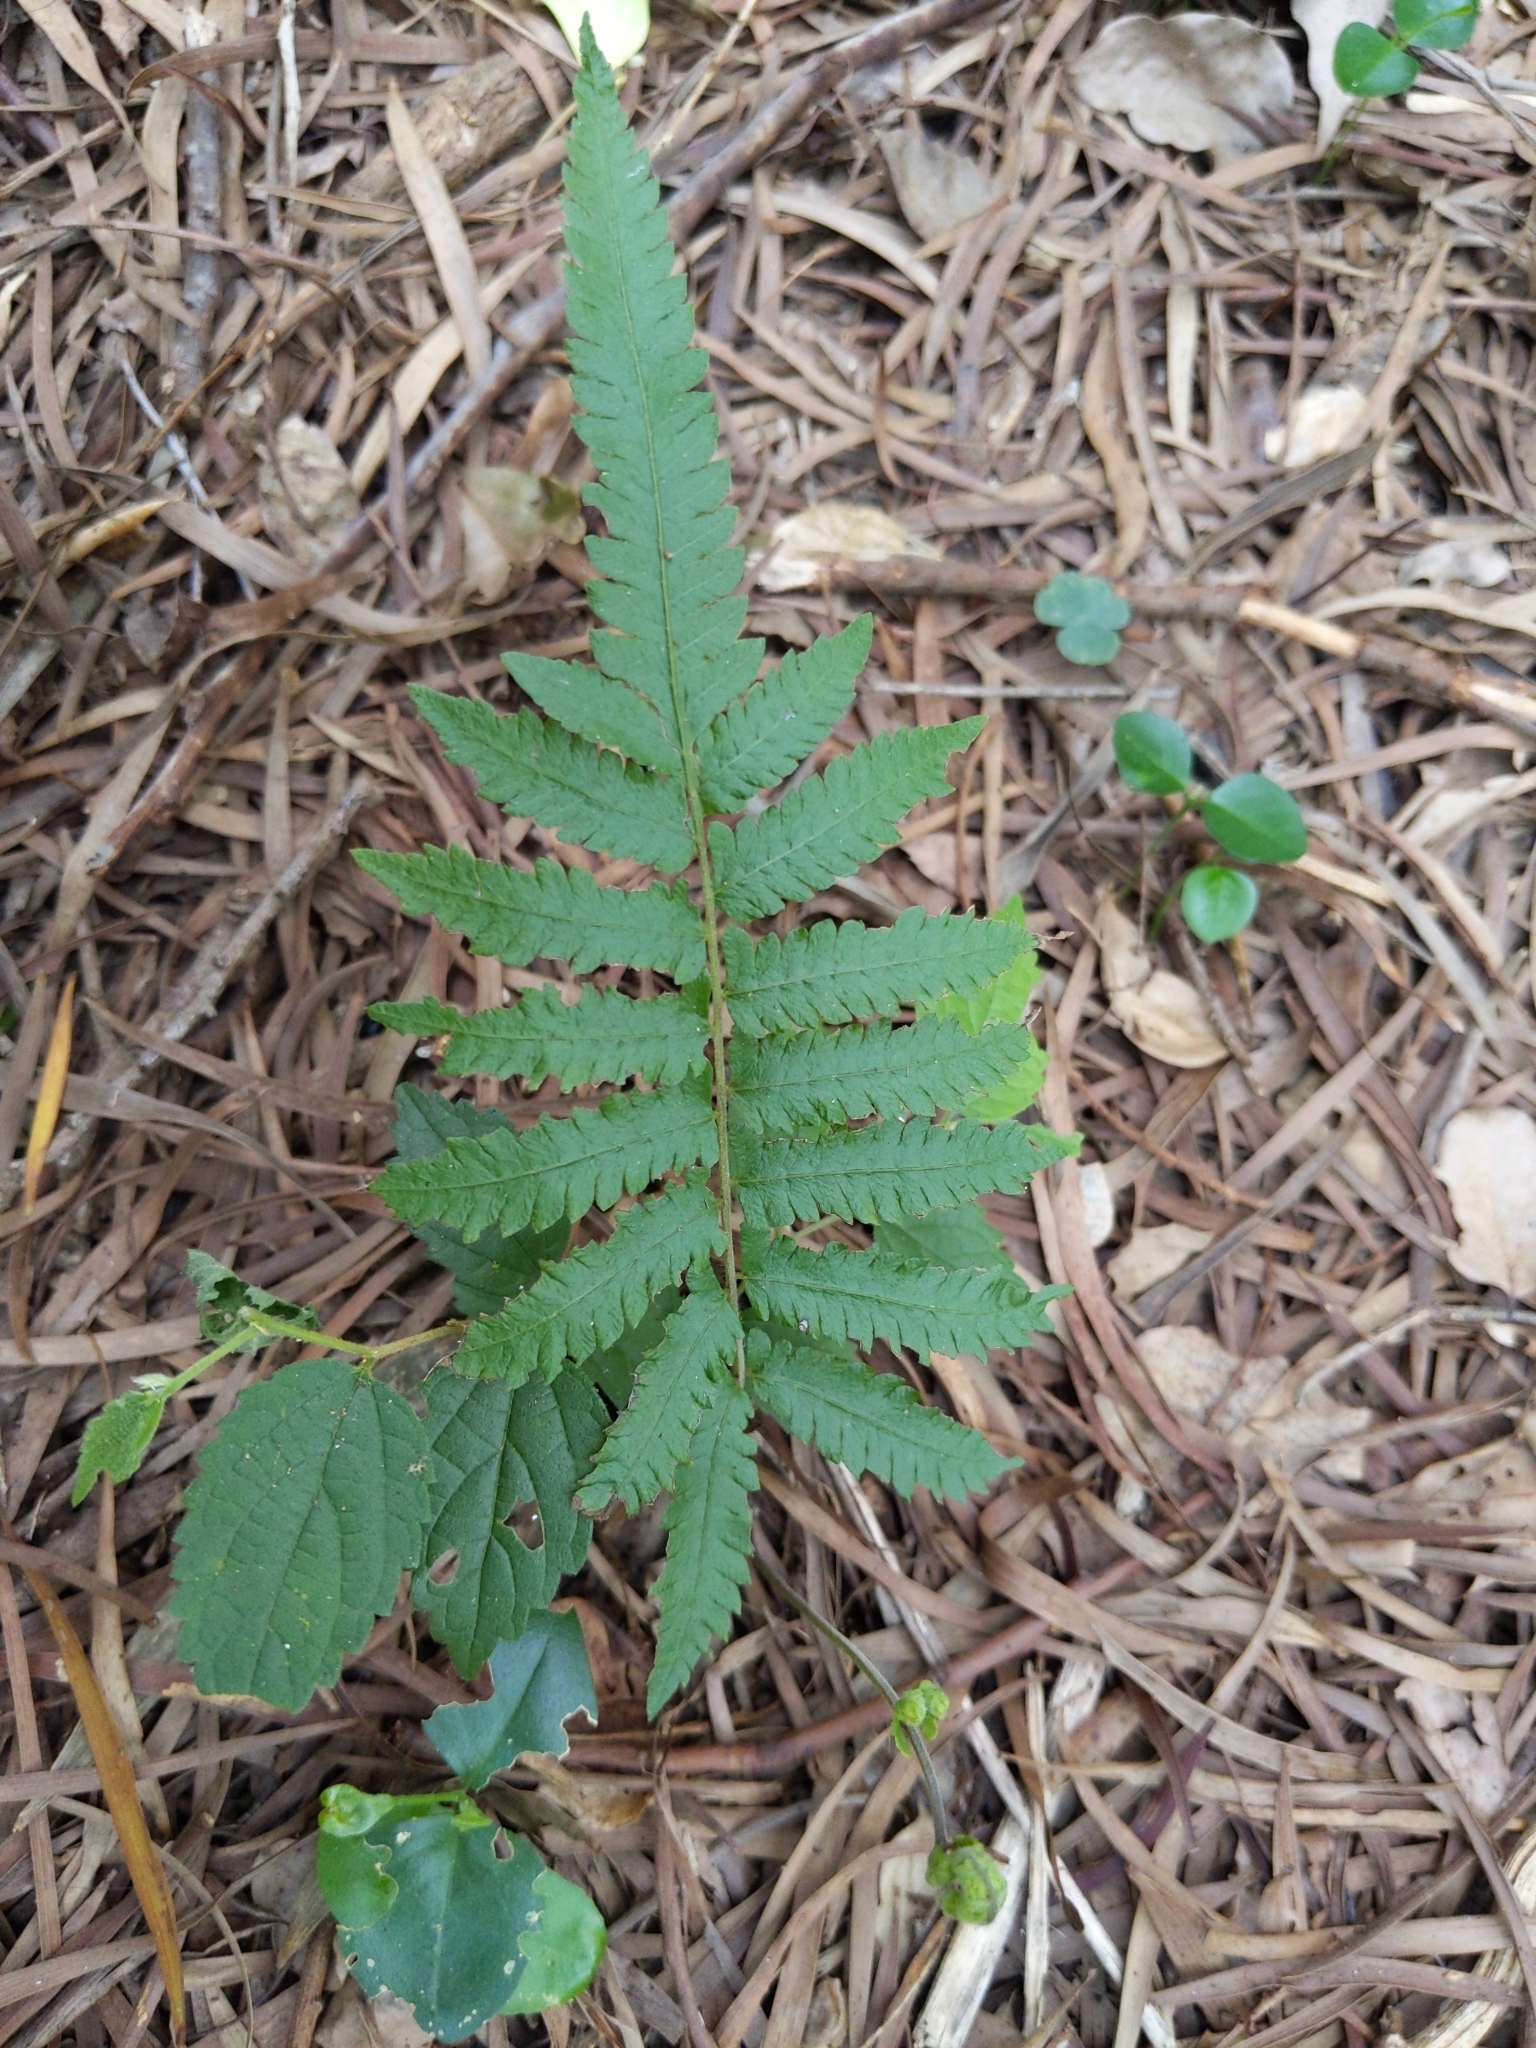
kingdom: Plantae
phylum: Tracheophyta
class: Polypodiopsida
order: Polypodiales
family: Thelypteridaceae
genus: Christella
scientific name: Christella acuminata
